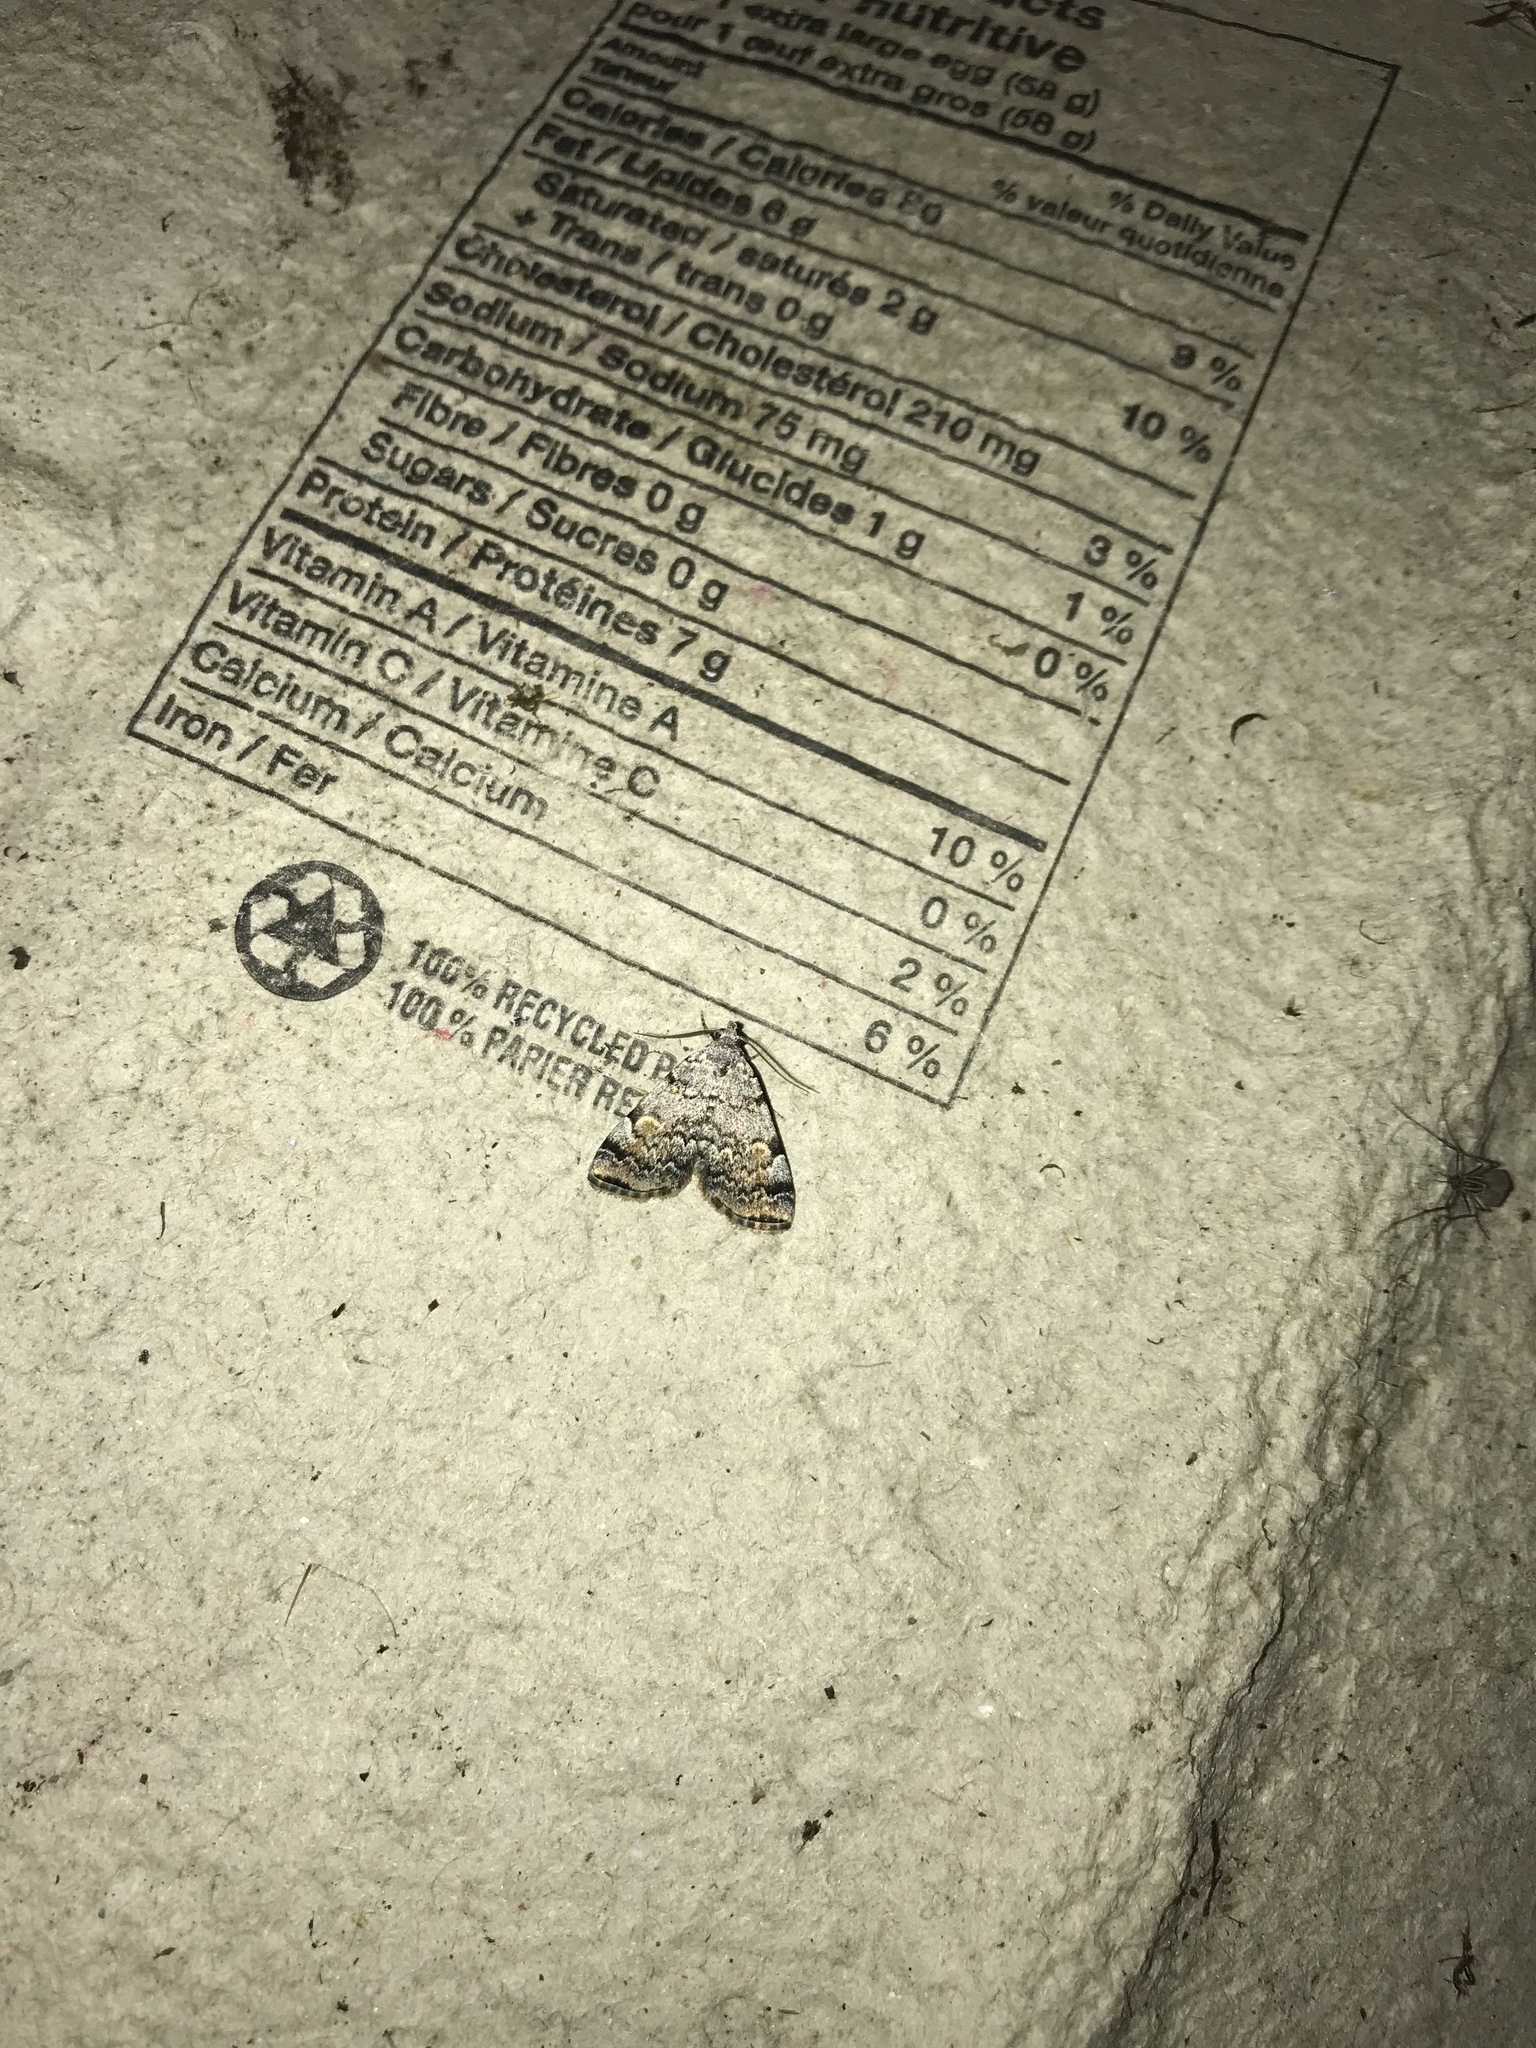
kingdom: Animalia
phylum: Arthropoda
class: Insecta
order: Lepidoptera
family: Erebidae
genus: Idia
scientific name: Idia americalis
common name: American idia moth
